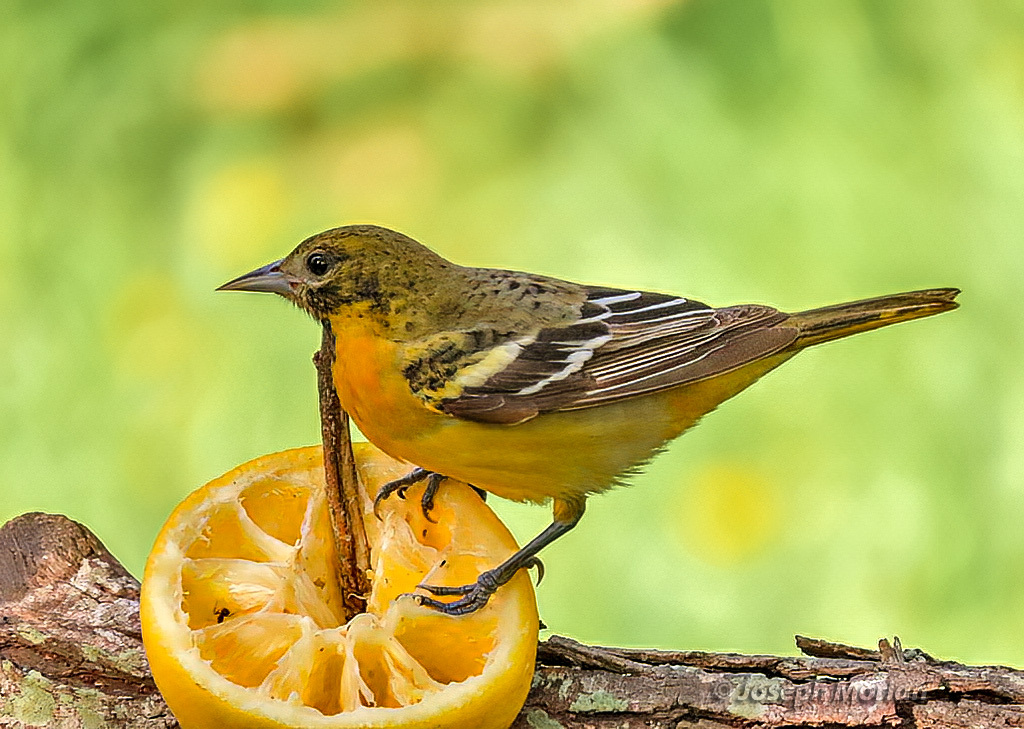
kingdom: Animalia
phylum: Chordata
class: Aves
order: Passeriformes
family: Icteridae
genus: Icterus
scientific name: Icterus galbula
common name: Baltimore oriole
